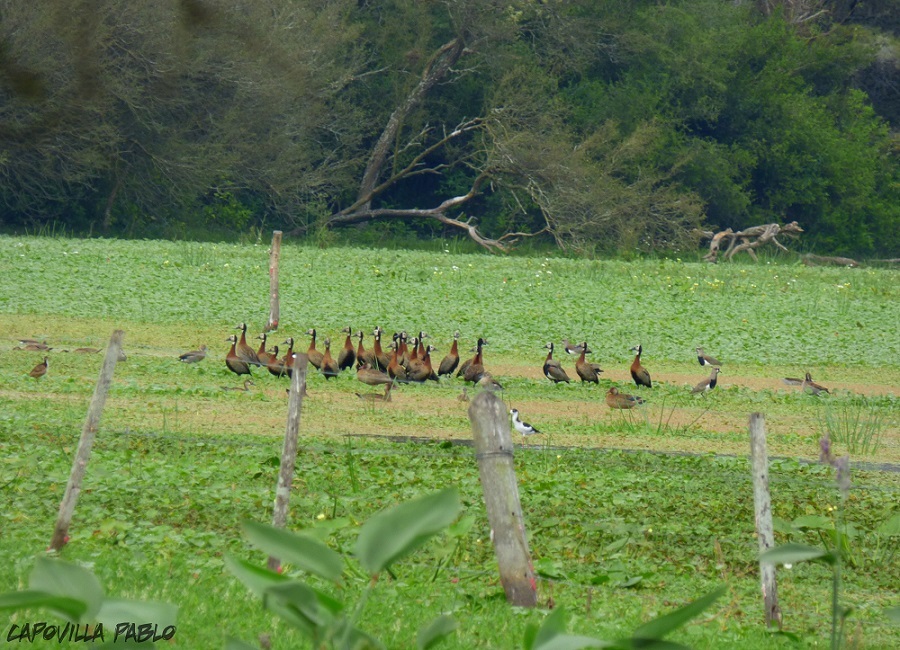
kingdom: Animalia
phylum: Chordata
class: Aves
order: Anseriformes
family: Anatidae
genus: Dendrocygna
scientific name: Dendrocygna viduata
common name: White-faced whistling duck
